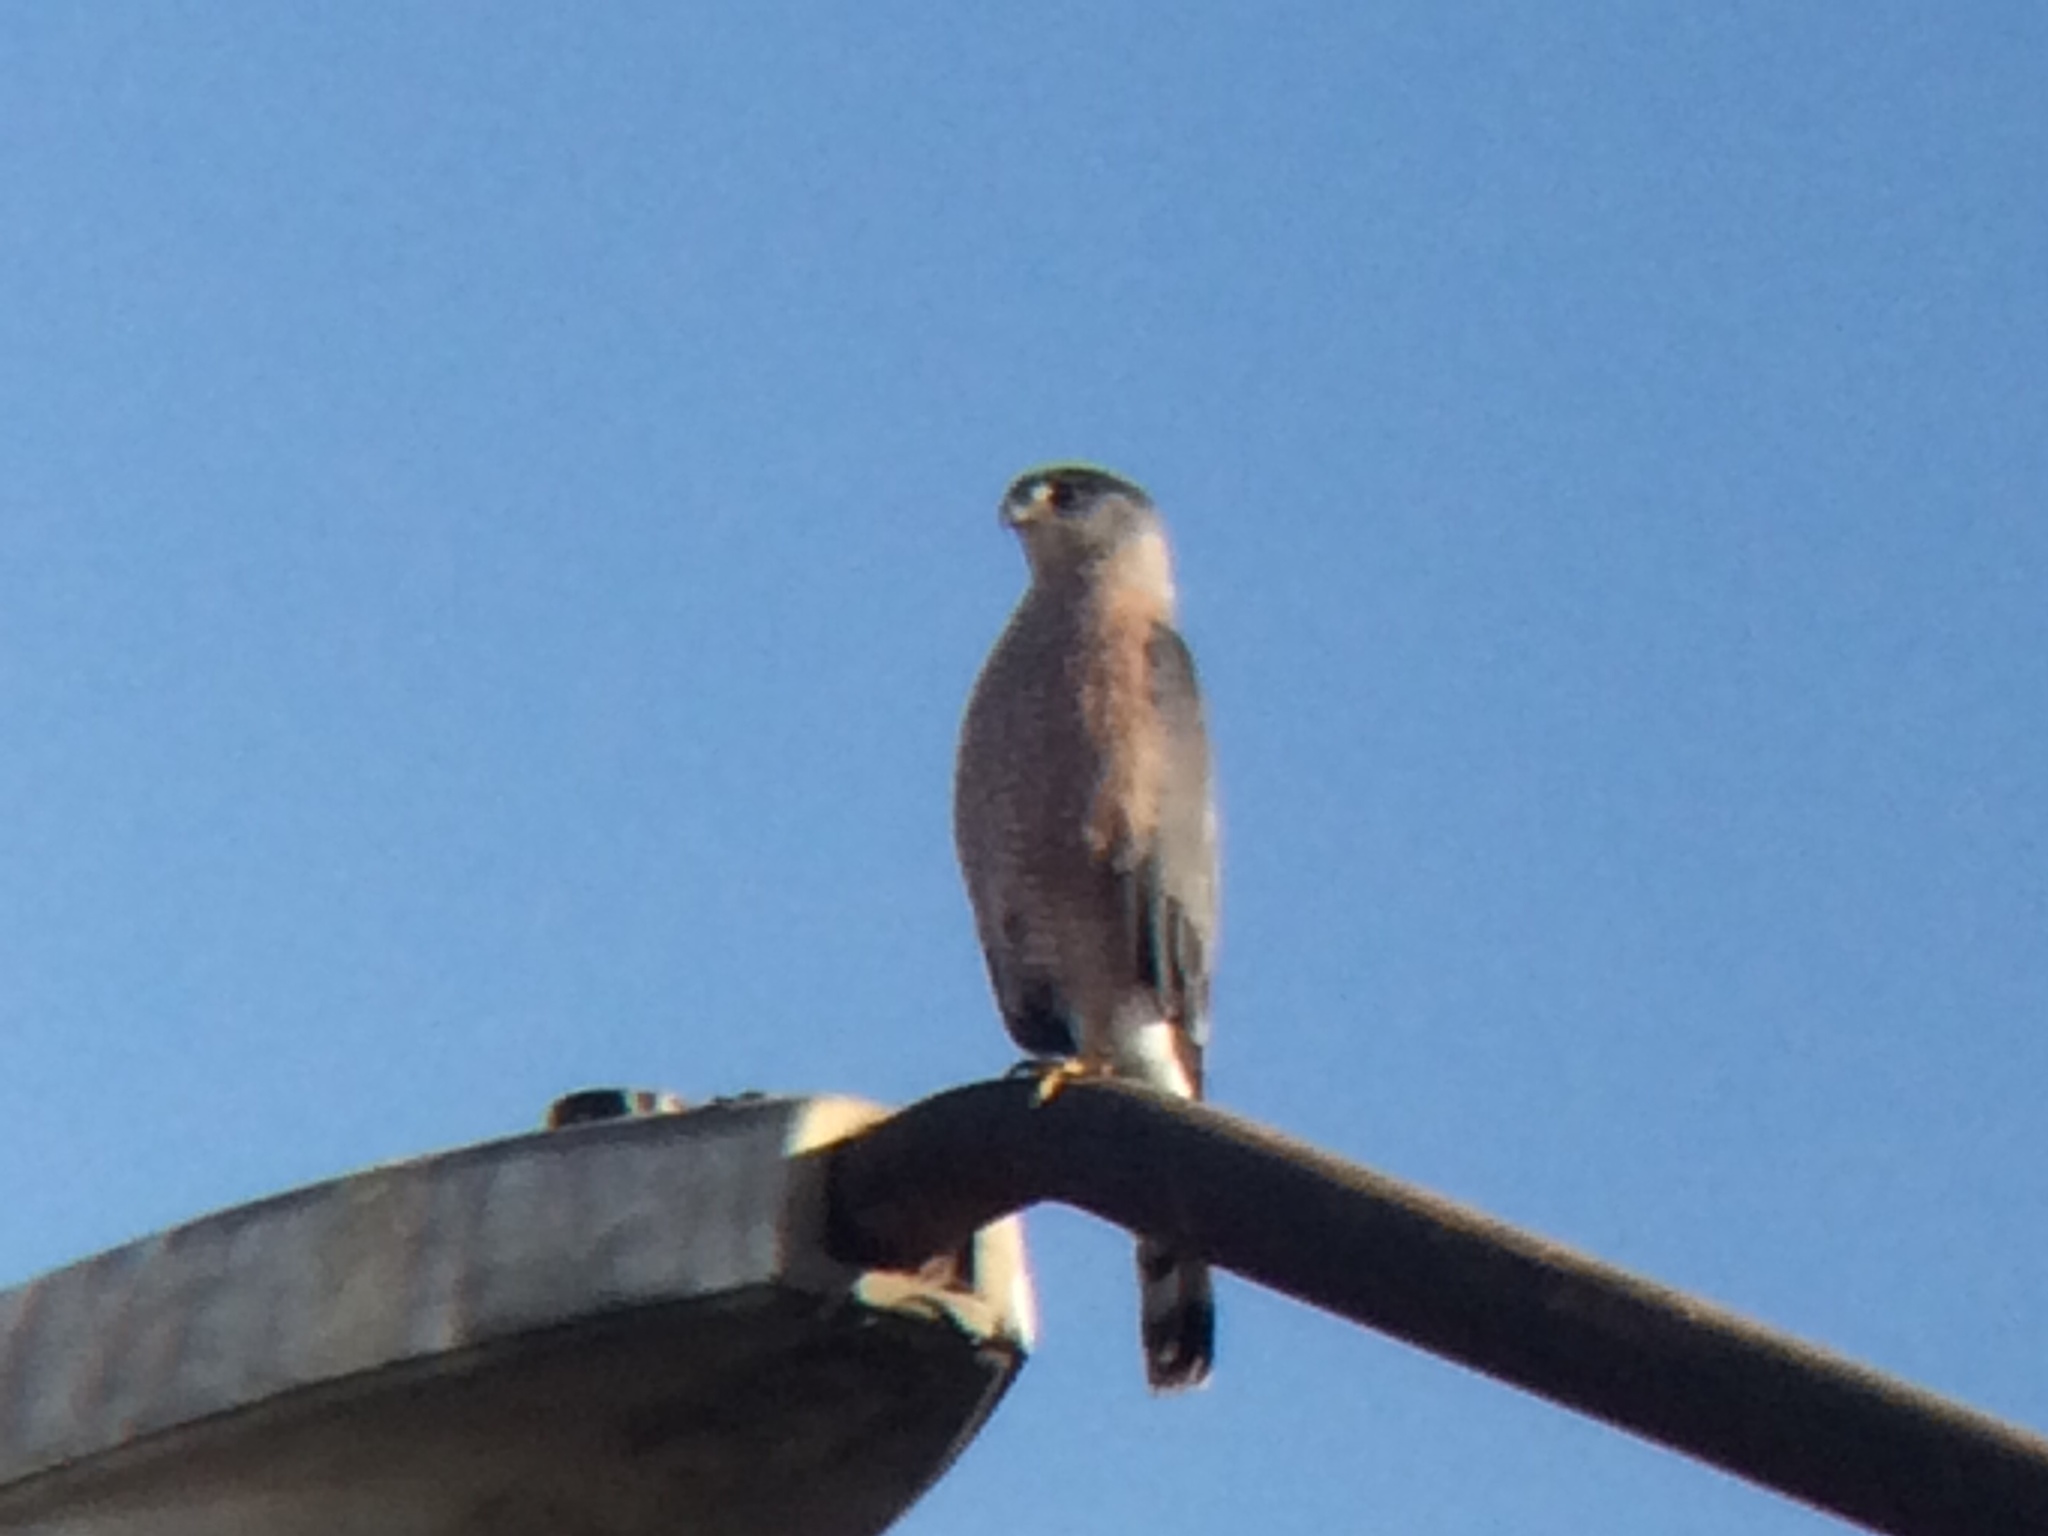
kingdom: Animalia
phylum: Chordata
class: Aves
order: Accipitriformes
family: Accipitridae
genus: Accipiter
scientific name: Accipiter cooperii
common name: Cooper's hawk
